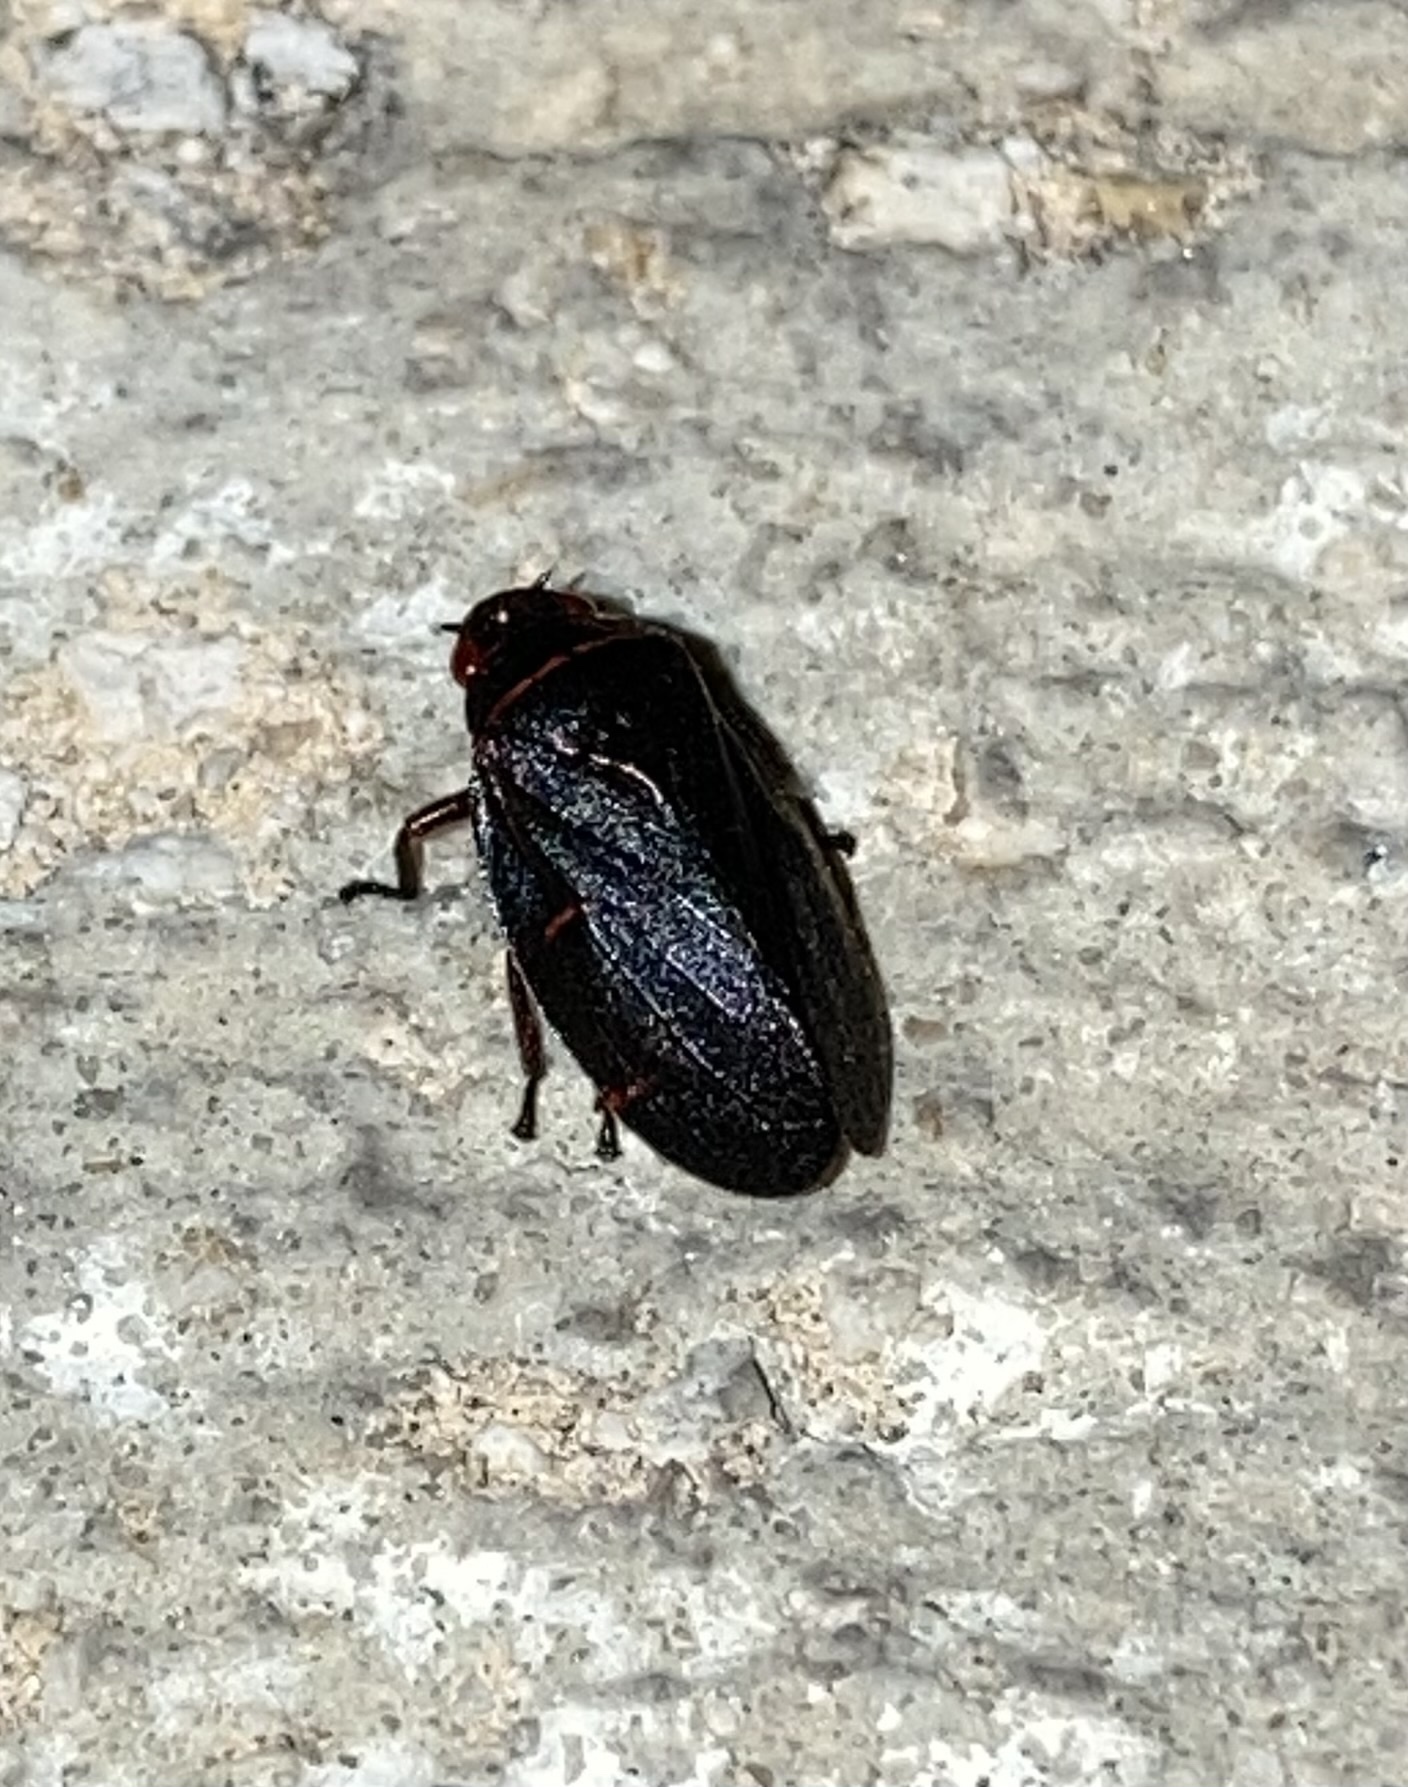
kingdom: Animalia
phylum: Arthropoda
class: Insecta
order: Hemiptera
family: Cercopidae
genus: Prosapia
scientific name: Prosapia bicincta
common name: Twolined spittlebug
